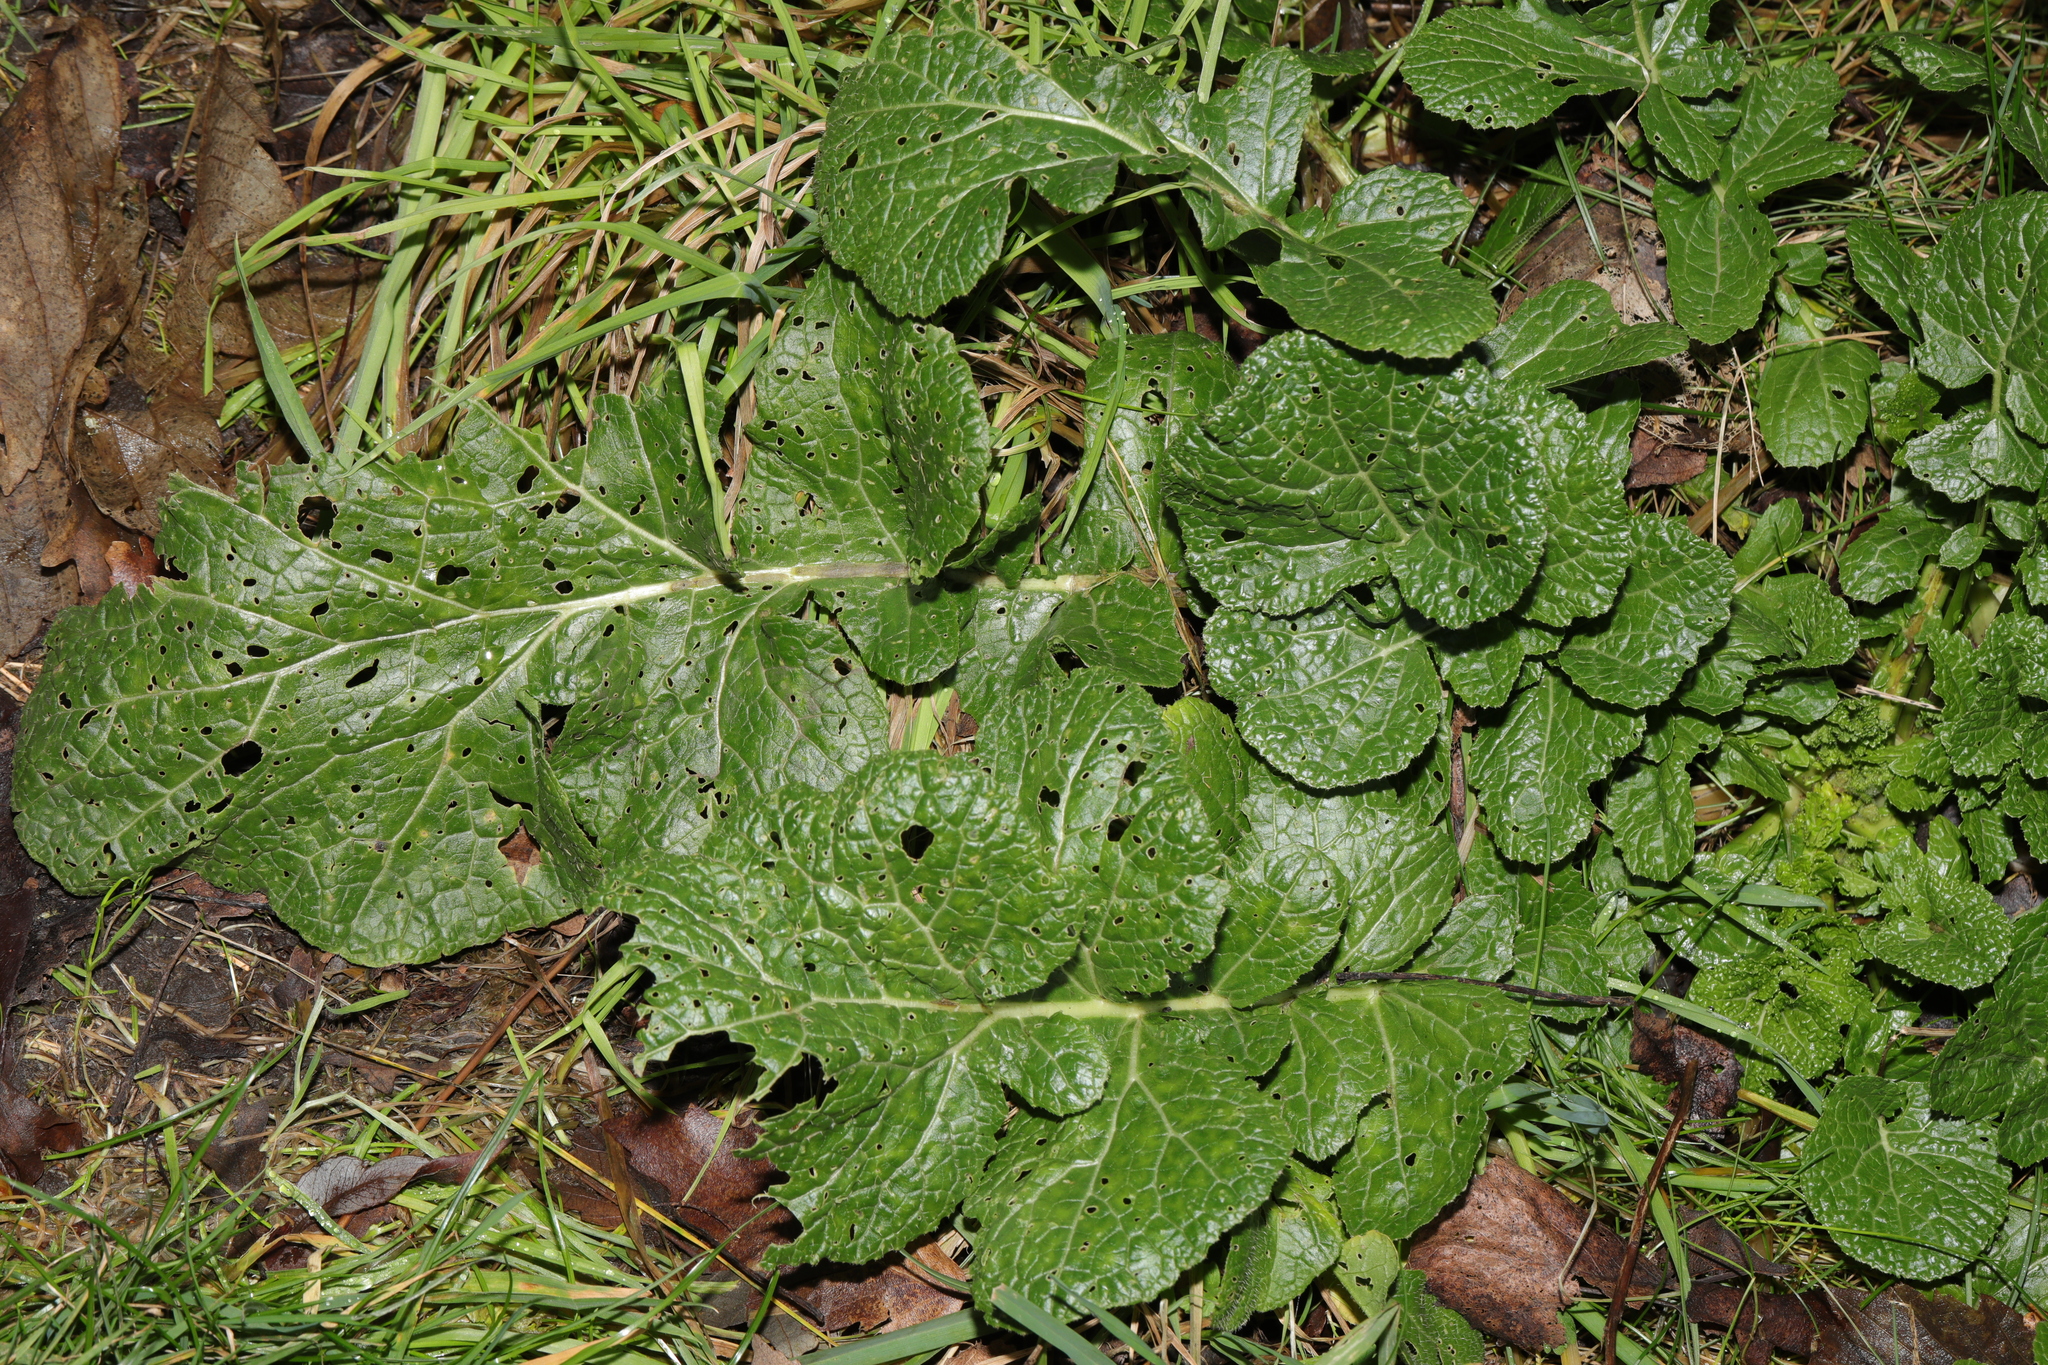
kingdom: Plantae
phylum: Tracheophyta
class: Magnoliopsida
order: Brassicales
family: Brassicaceae
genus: Brassica
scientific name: Brassica rapa
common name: Field mustard
